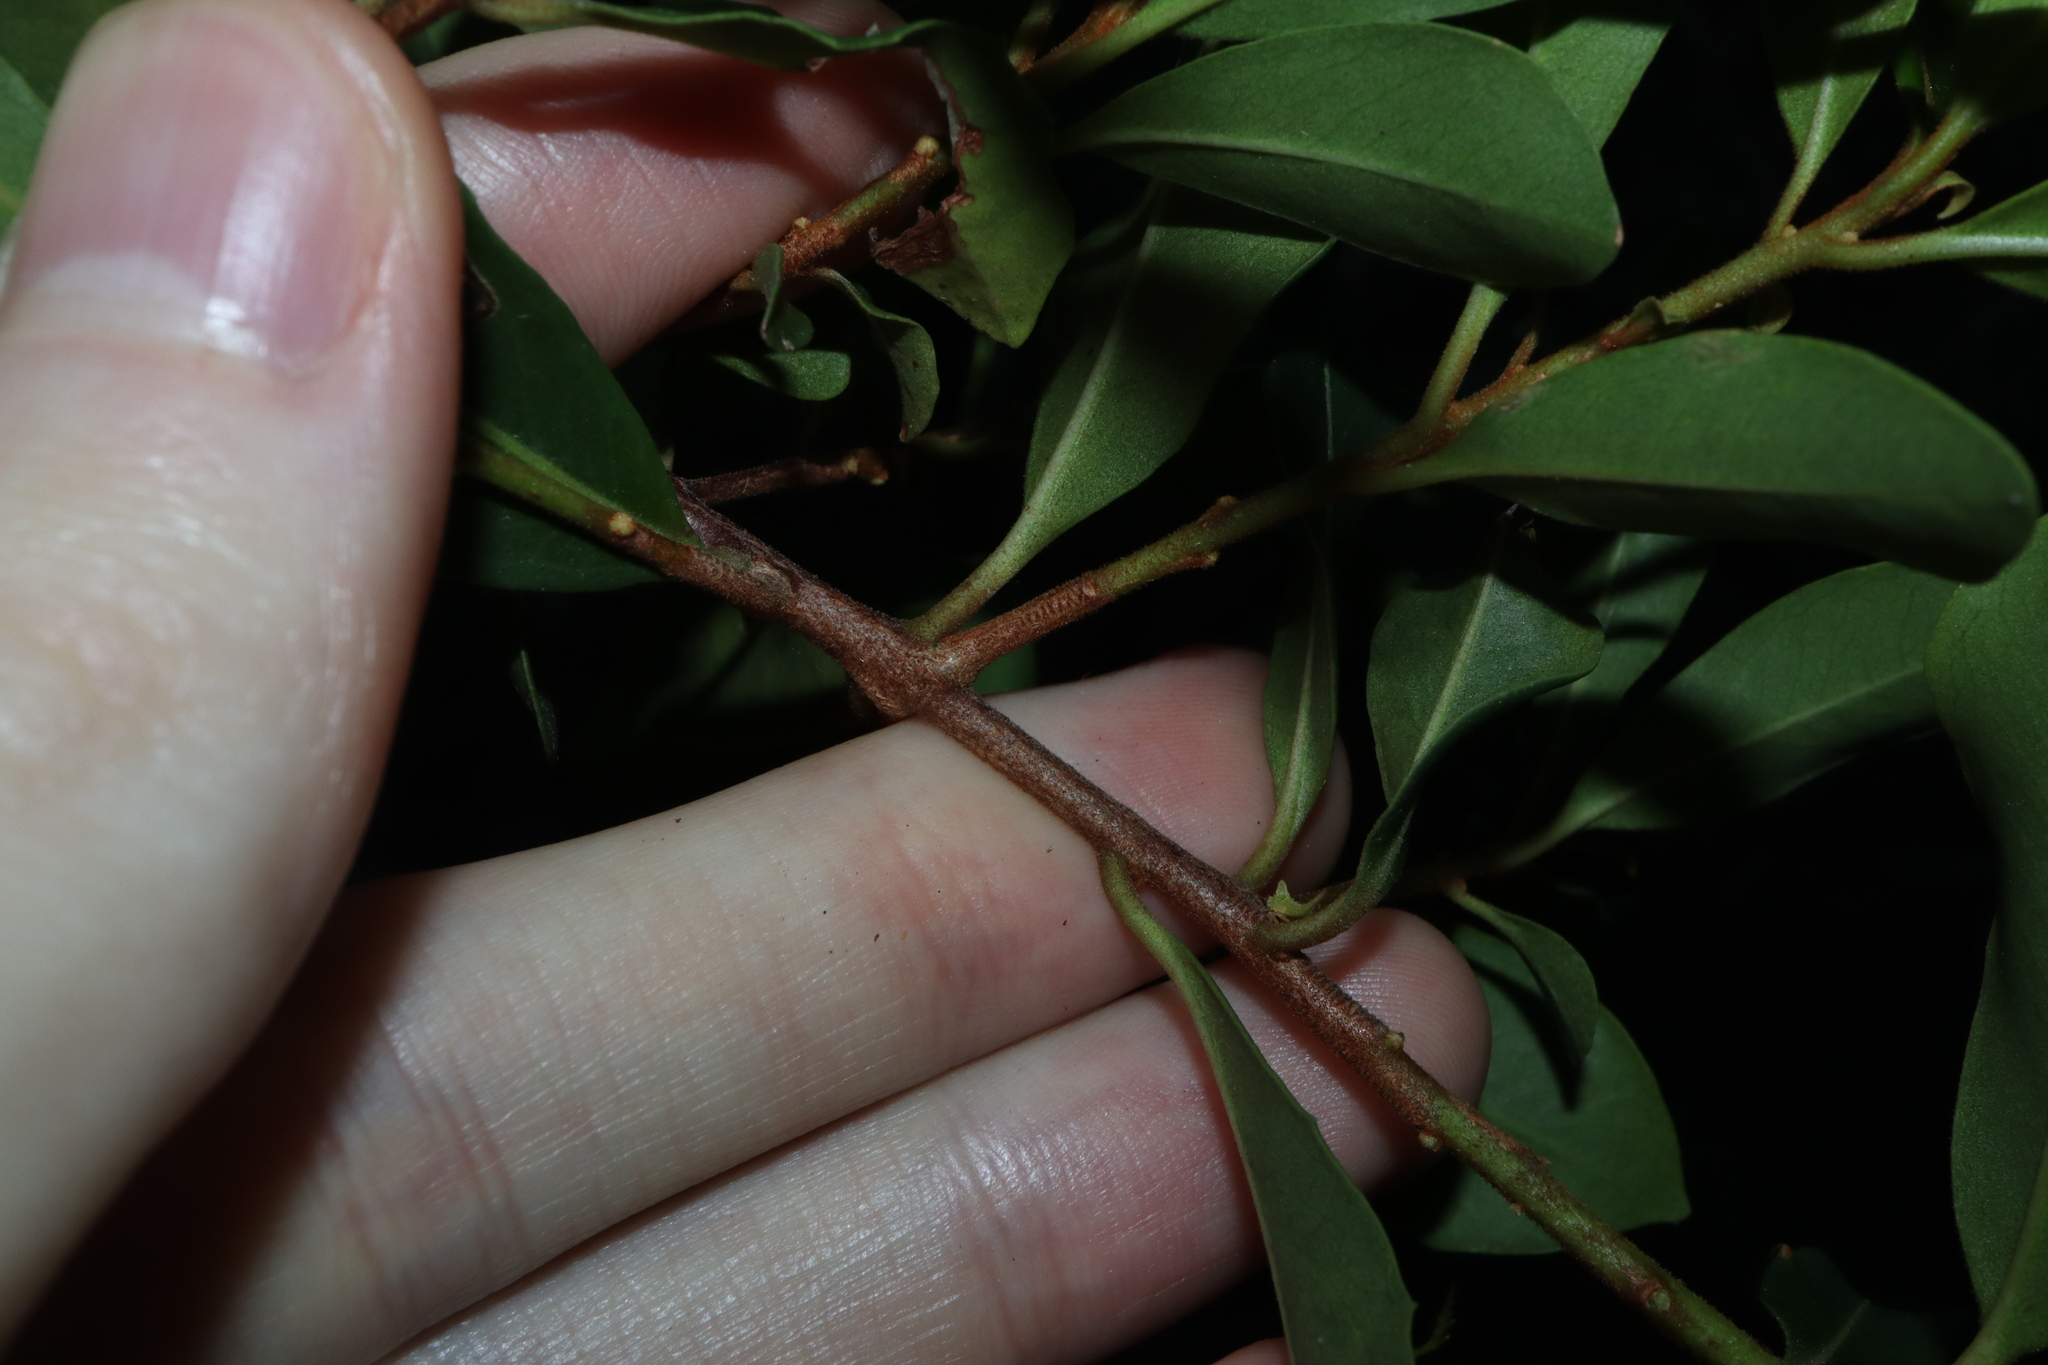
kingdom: Plantae
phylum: Tracheophyta
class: Magnoliopsida
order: Ericales
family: Primulaceae
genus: Myrsine
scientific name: Myrsine variabilis
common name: Brush muttonwood
